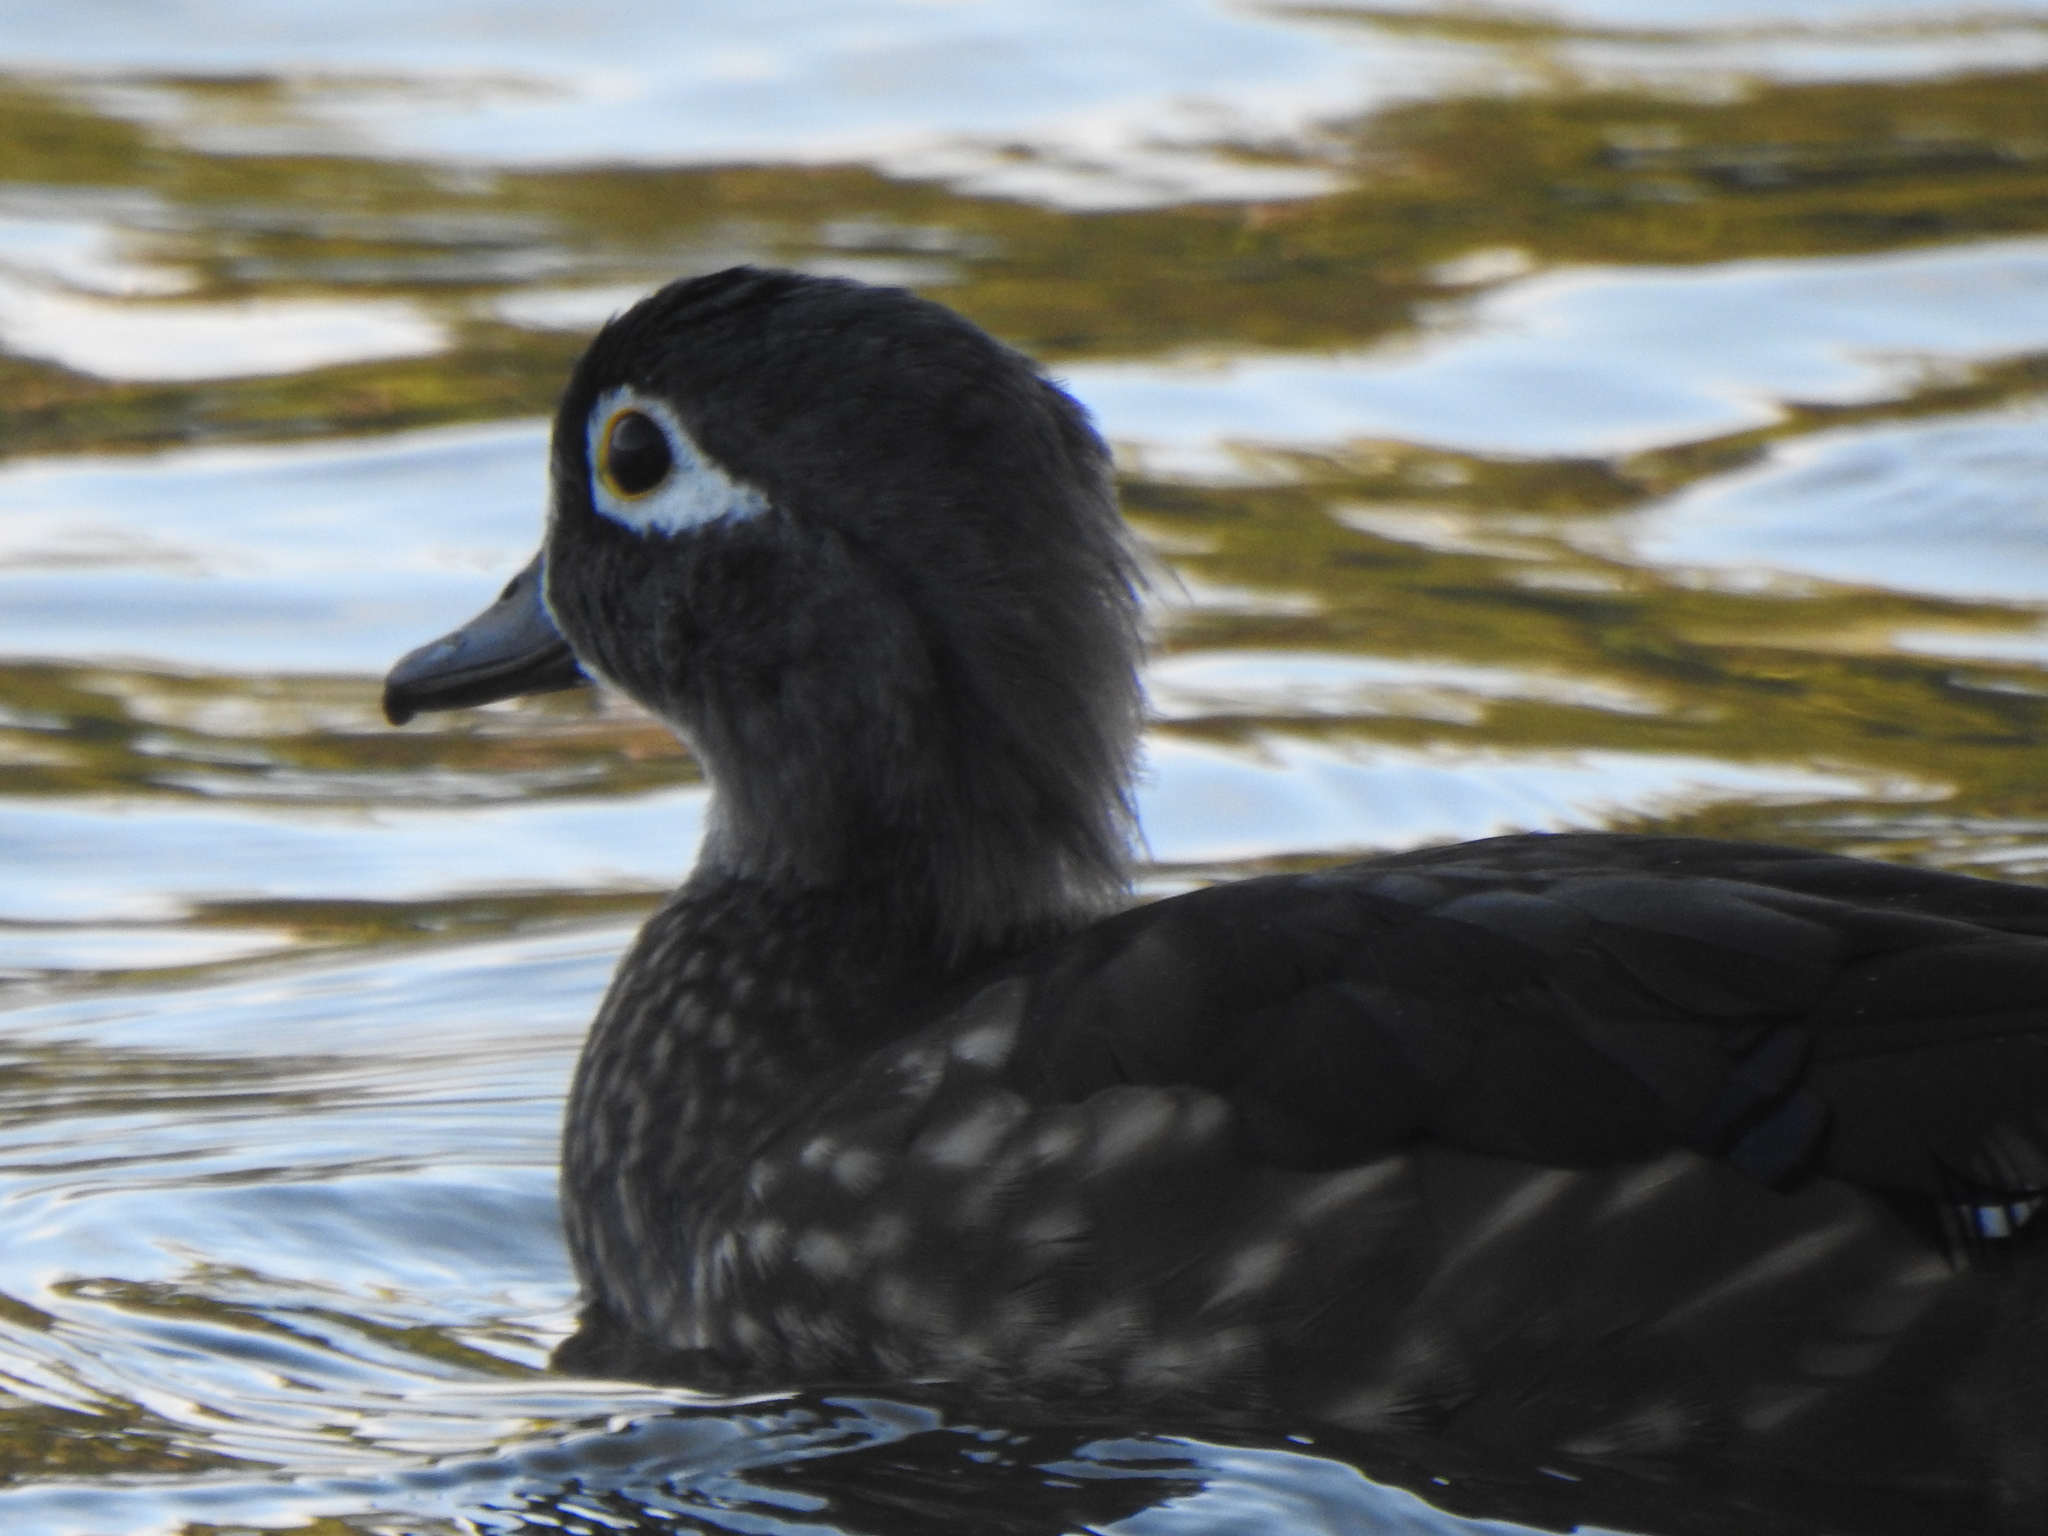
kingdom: Animalia
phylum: Chordata
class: Aves
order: Anseriformes
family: Anatidae
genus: Aix
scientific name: Aix sponsa
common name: Wood duck
